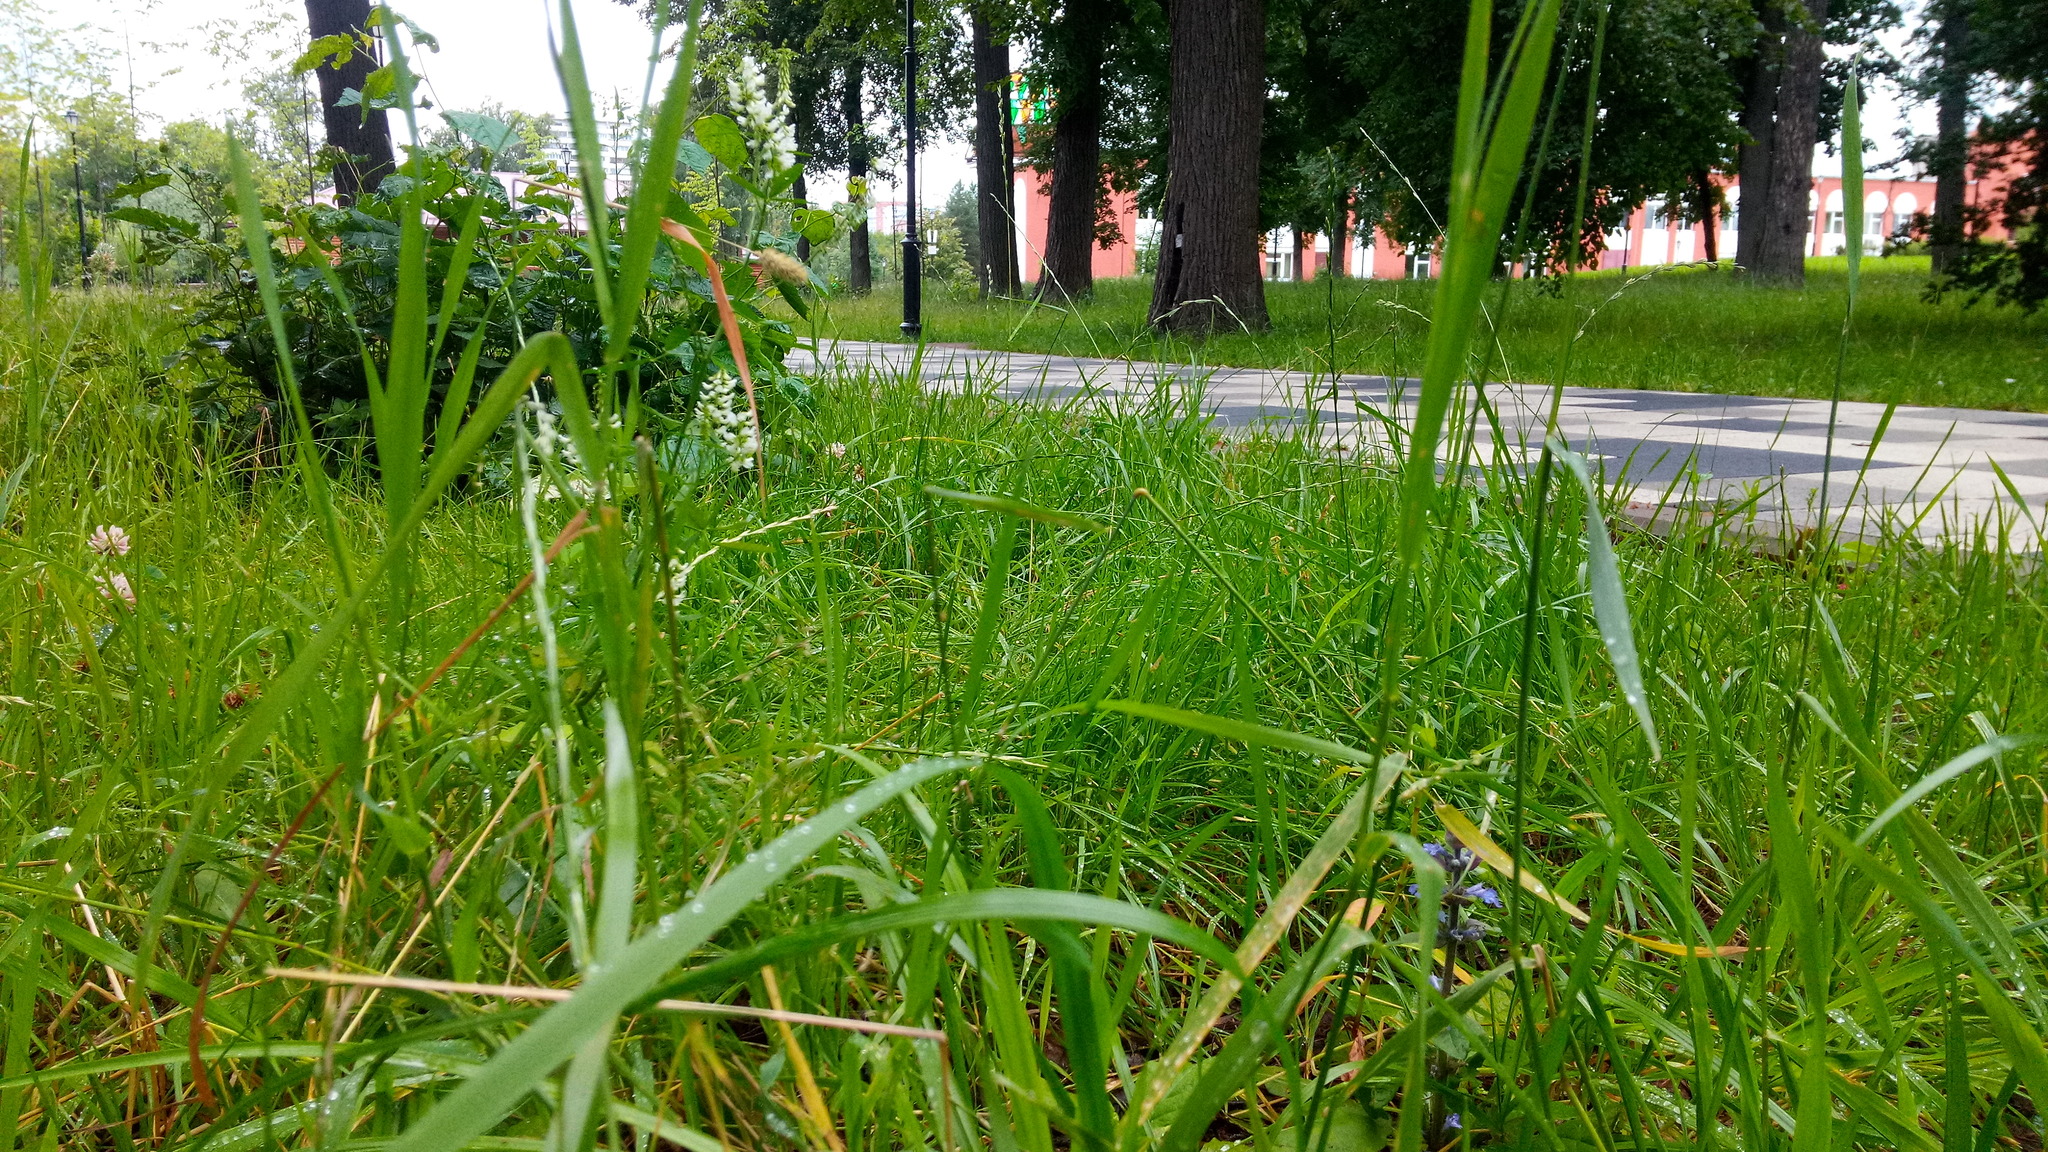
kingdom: Plantae
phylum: Tracheophyta
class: Magnoliopsida
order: Lamiales
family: Lamiaceae
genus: Ajuga
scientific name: Ajuga reptans
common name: Bugle
